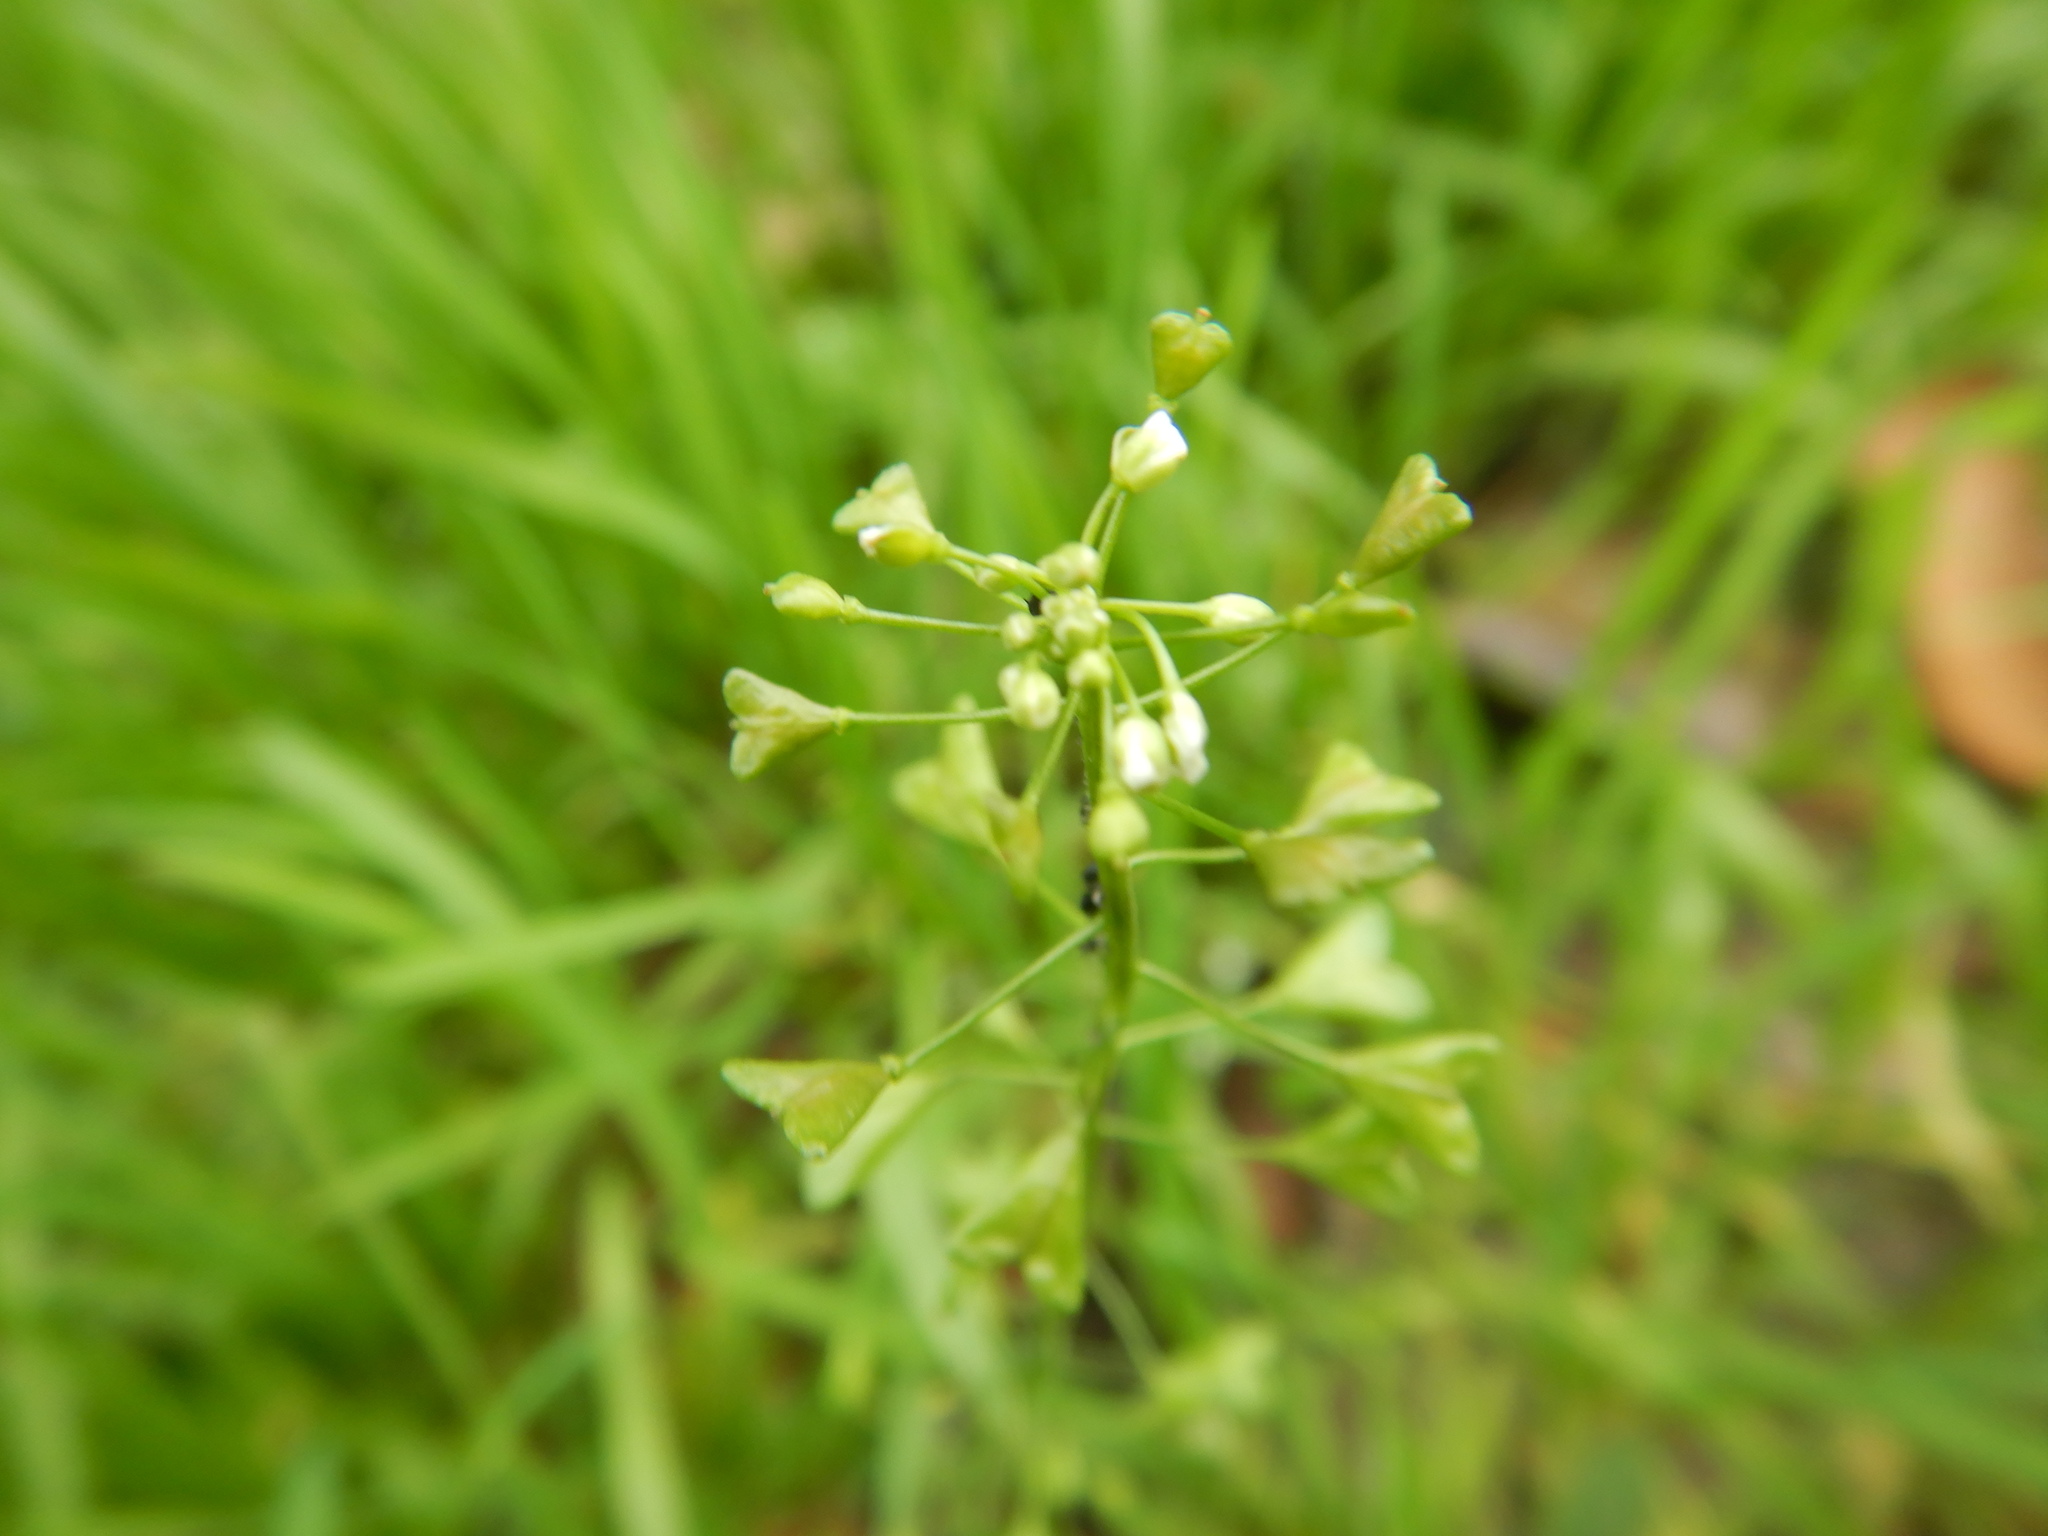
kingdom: Plantae
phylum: Tracheophyta
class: Magnoliopsida
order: Brassicales
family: Brassicaceae
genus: Capsella
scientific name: Capsella bursa-pastoris
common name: Shepherd's purse
